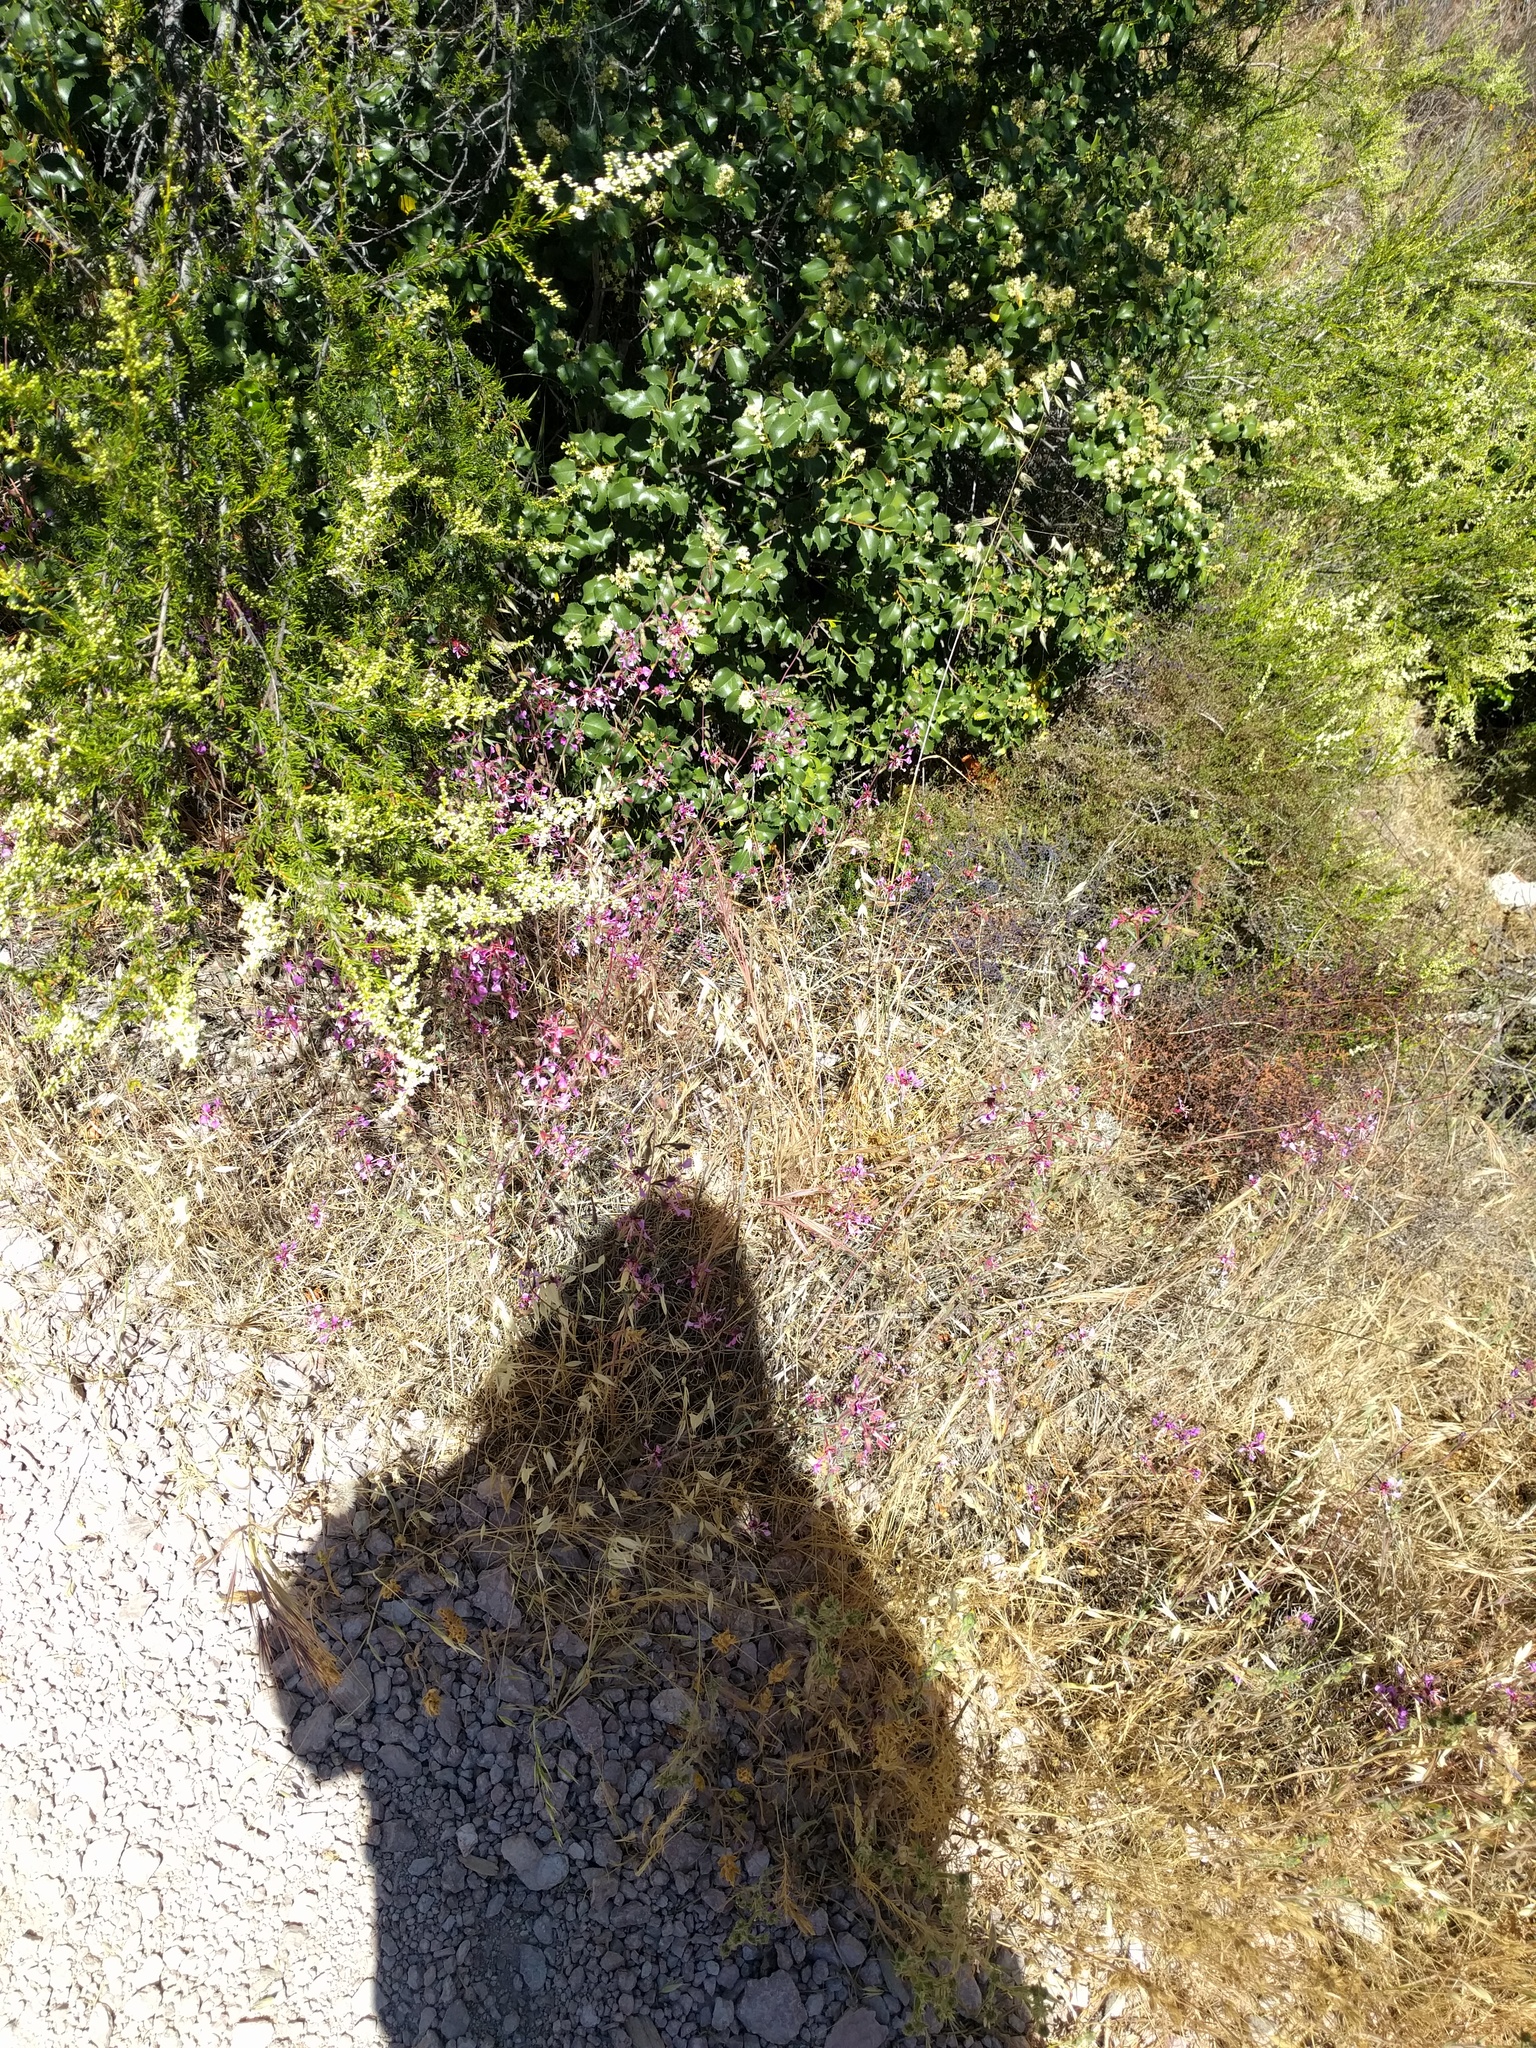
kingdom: Plantae
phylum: Tracheophyta
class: Magnoliopsida
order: Myrtales
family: Onagraceae
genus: Clarkia
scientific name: Clarkia unguiculata
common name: Clarkia
